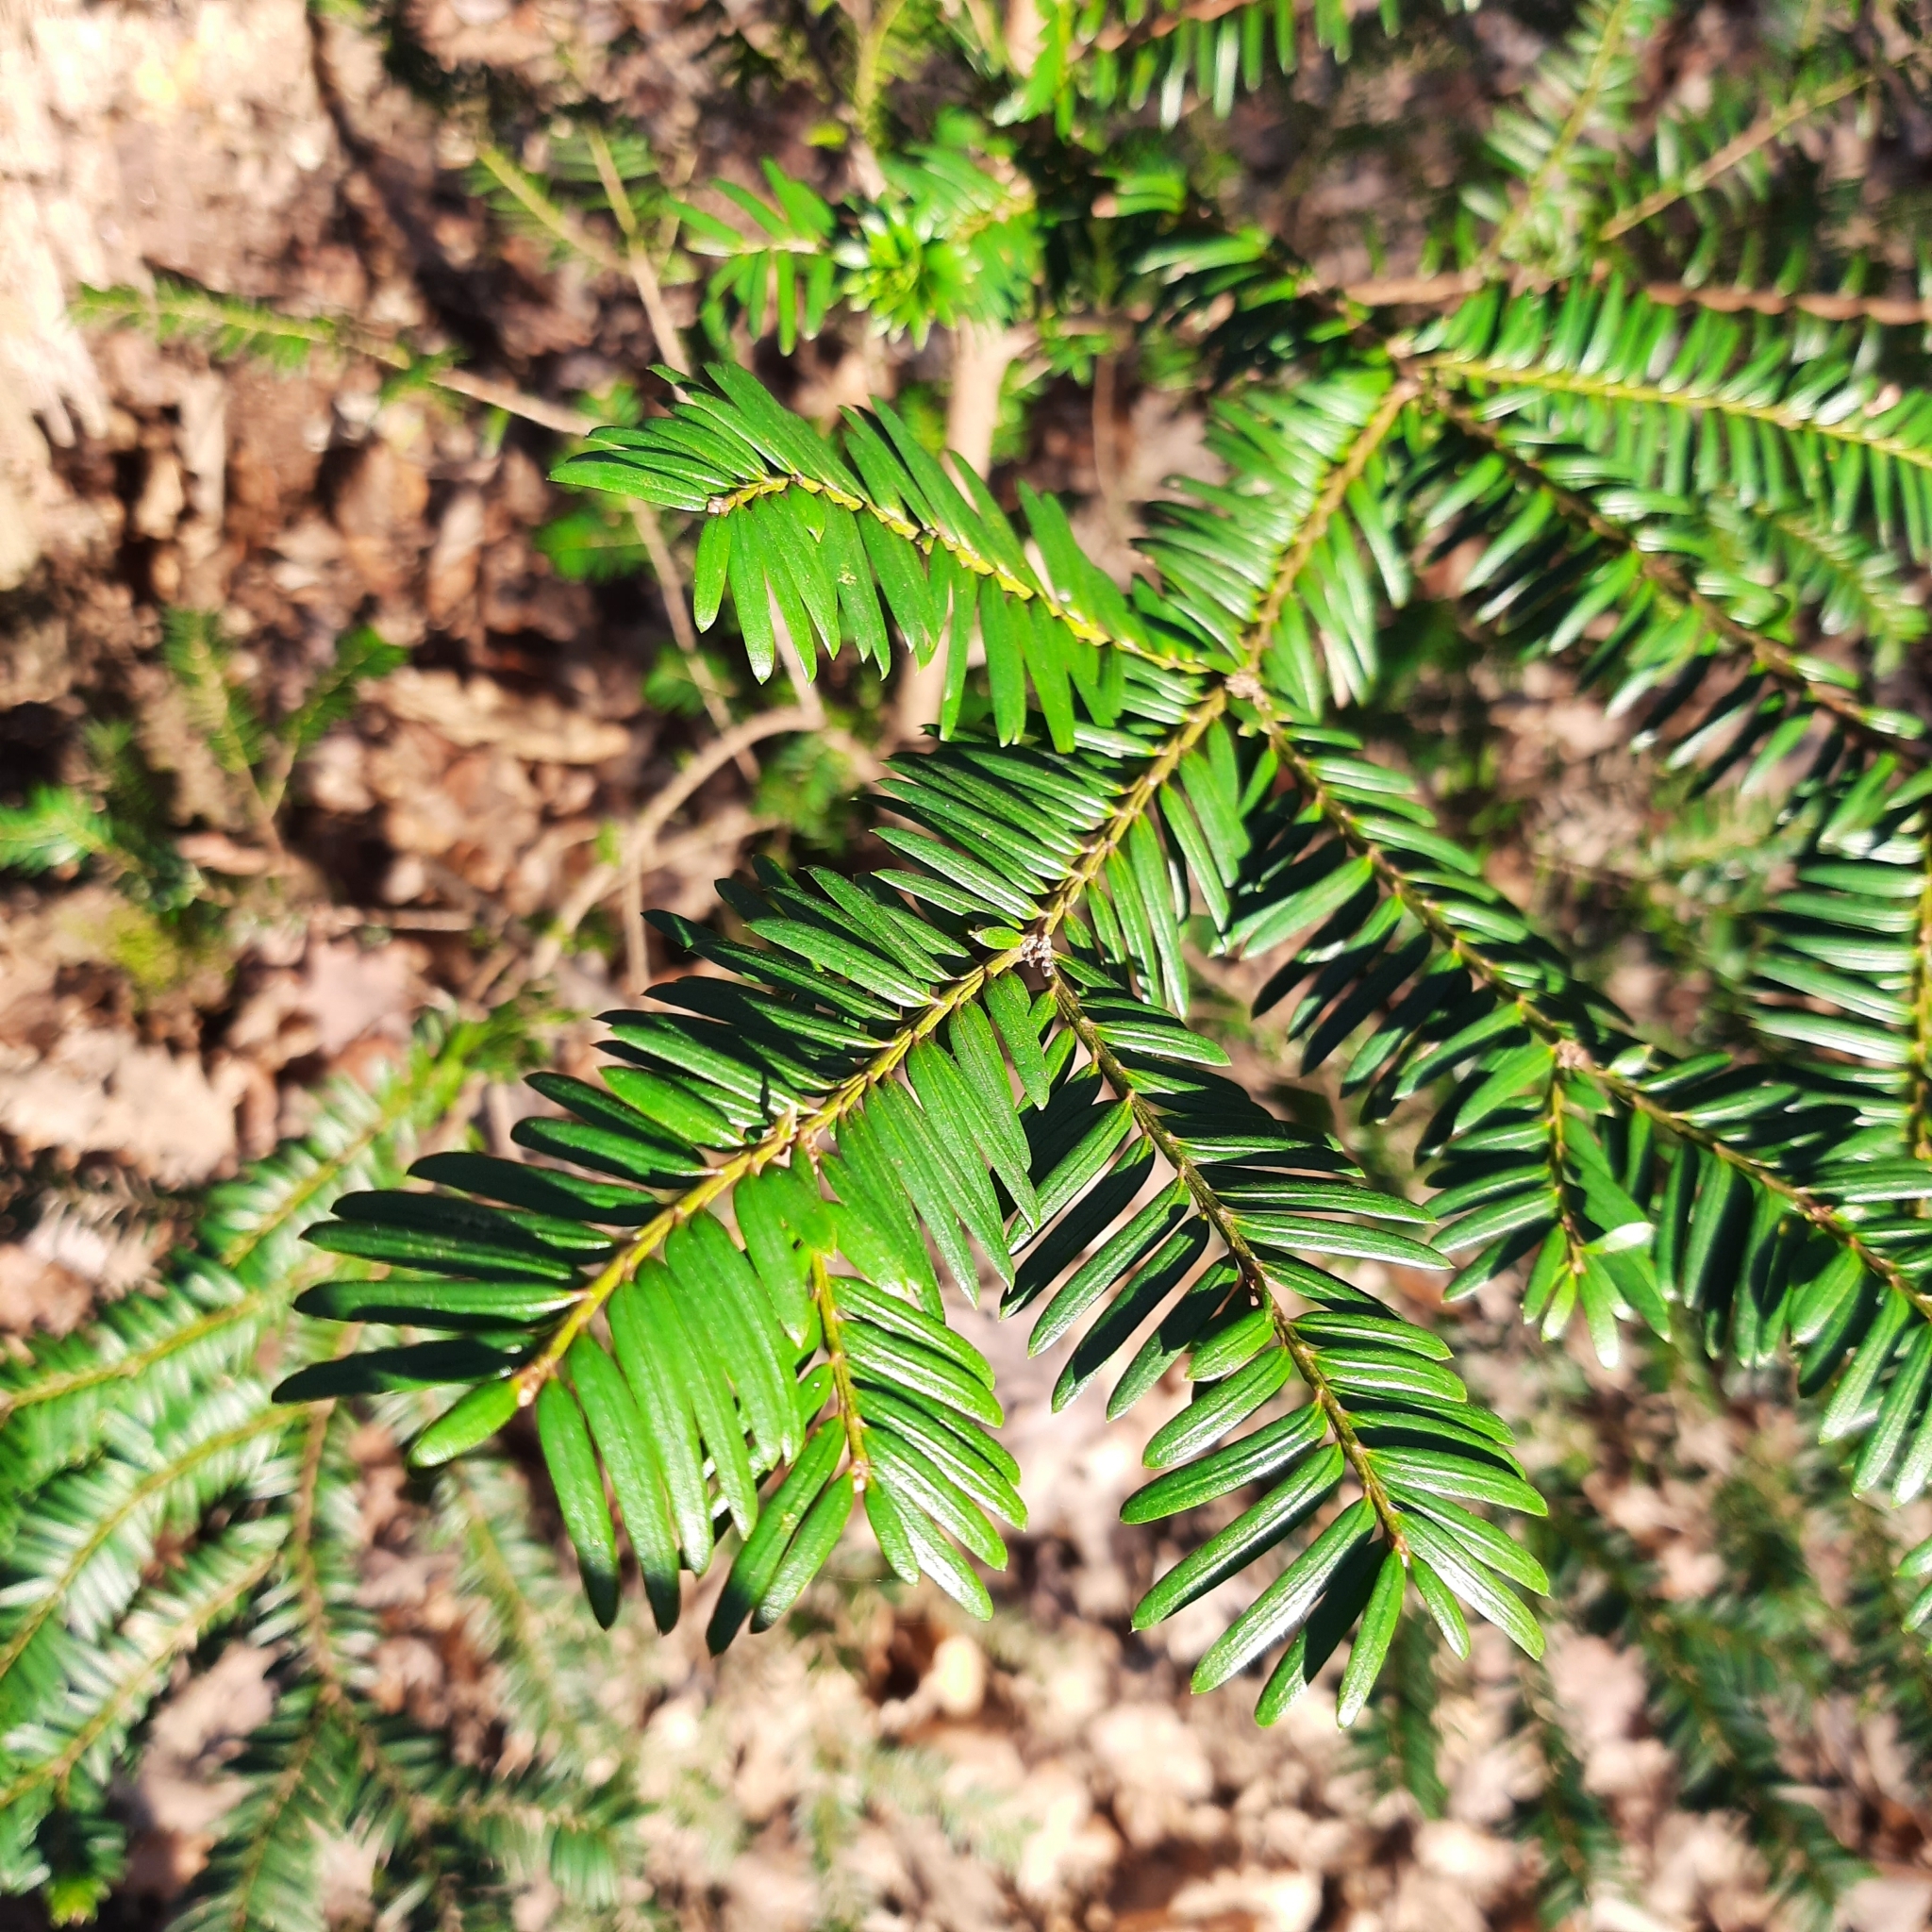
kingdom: Plantae
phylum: Tracheophyta
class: Pinopsida
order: Pinales
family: Taxaceae
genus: Taxus
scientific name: Taxus baccata
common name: Yew
